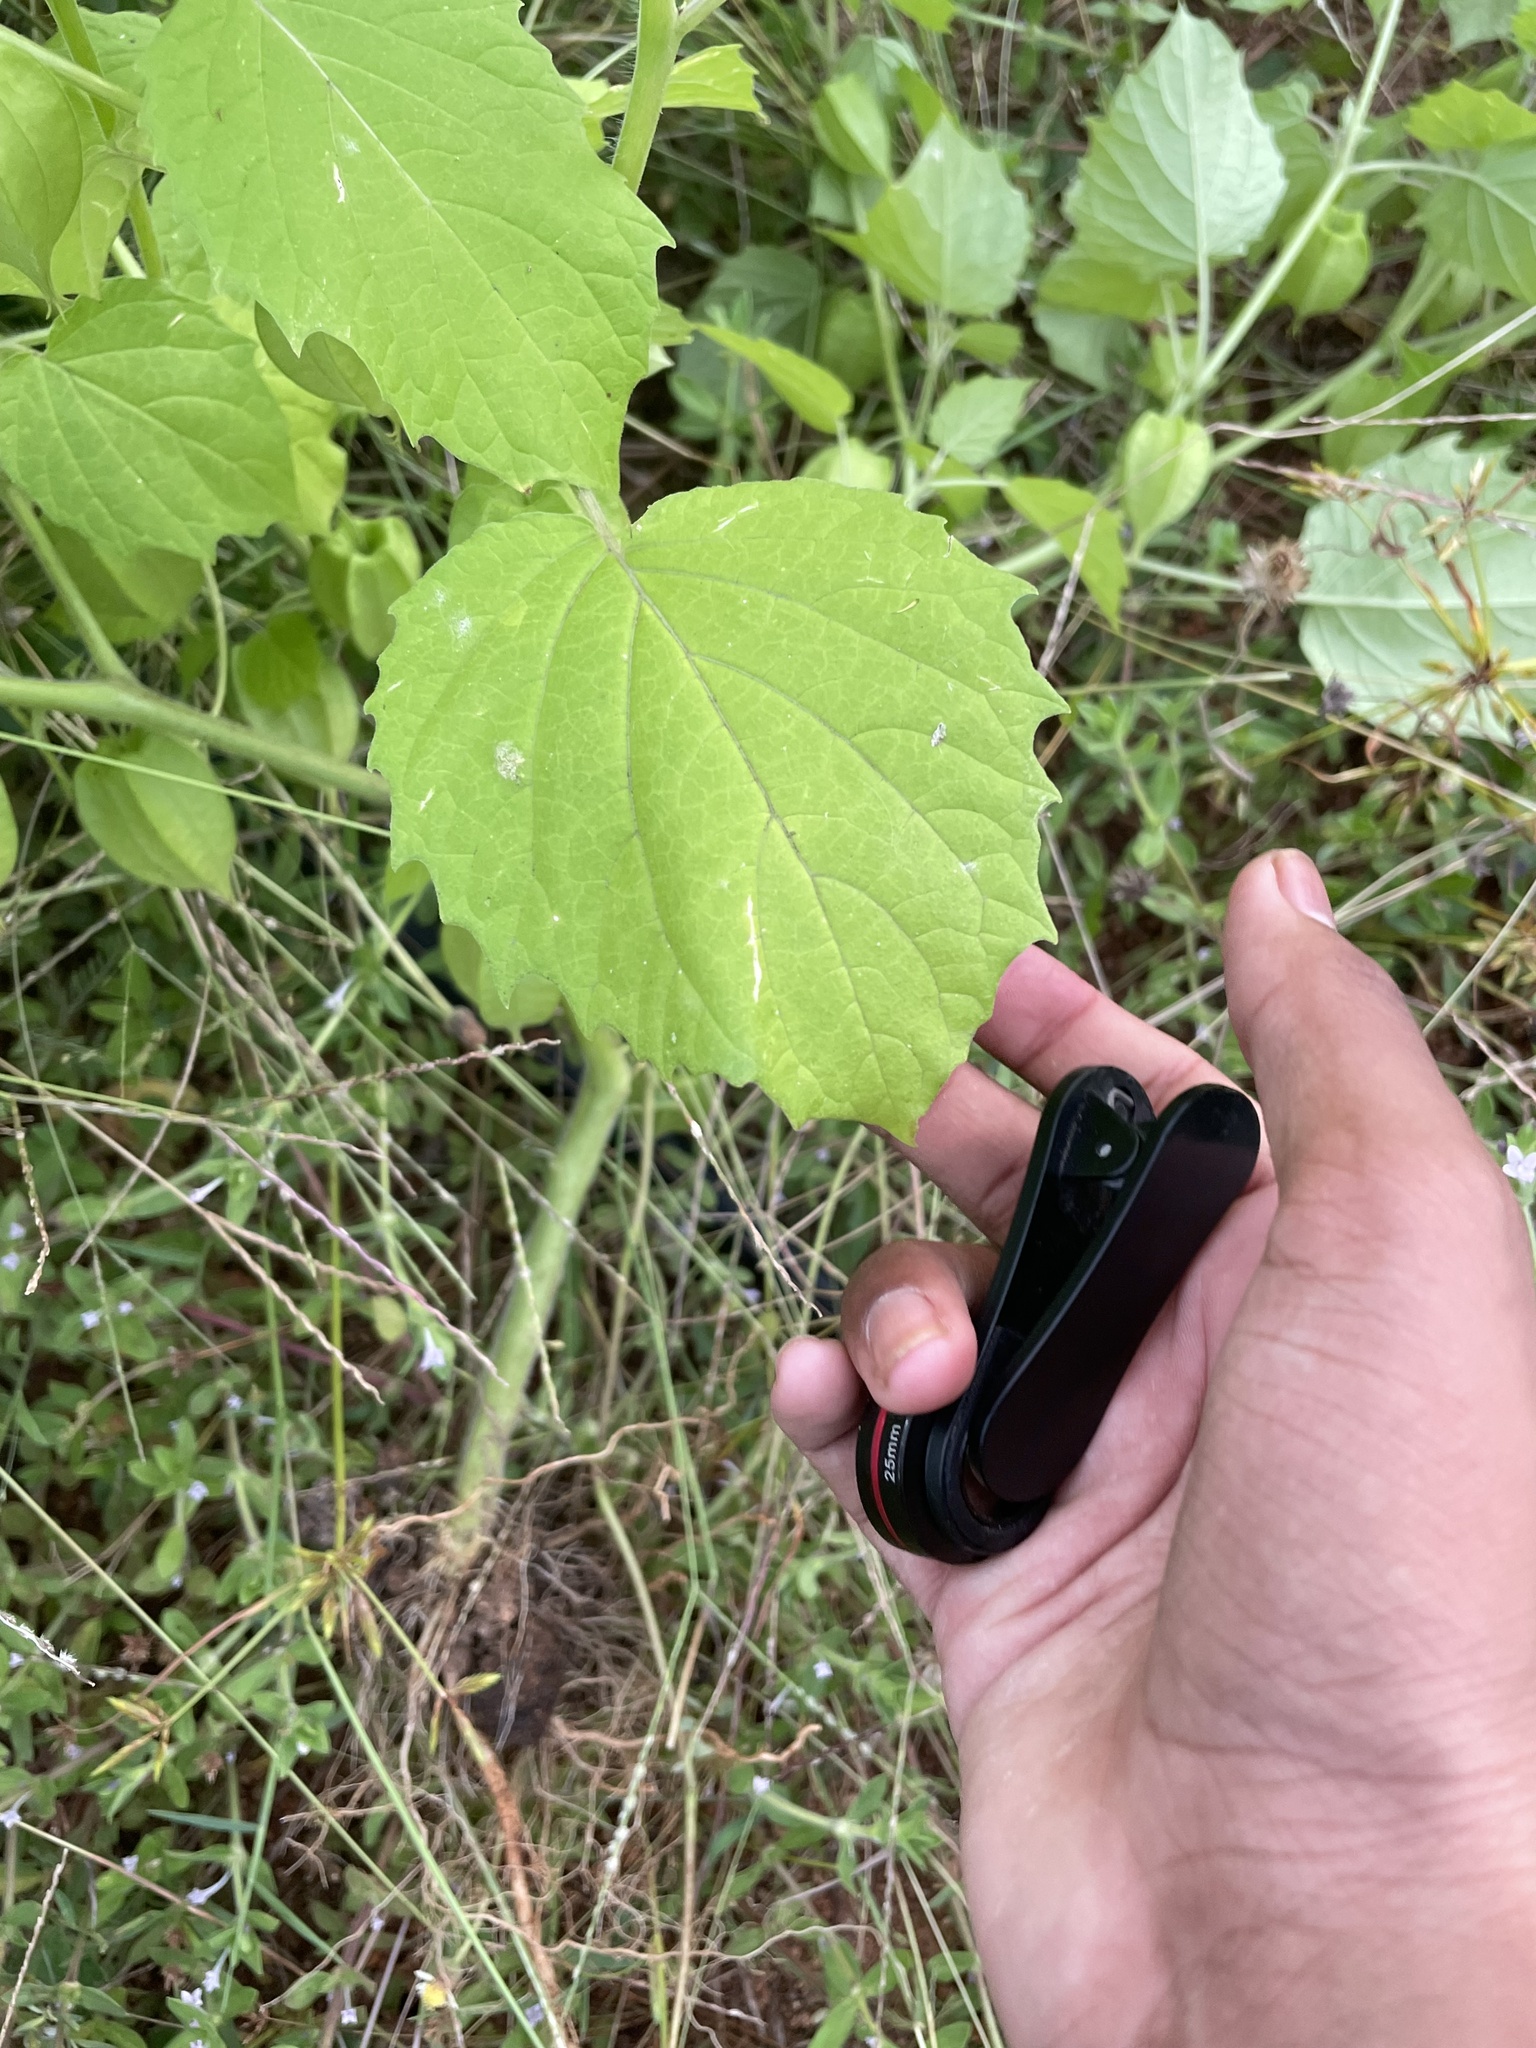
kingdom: Plantae
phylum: Tracheophyta
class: Magnoliopsida
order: Solanales
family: Solanaceae
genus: Physalis
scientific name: Physalis pruinosa
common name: Strawberry tomato
